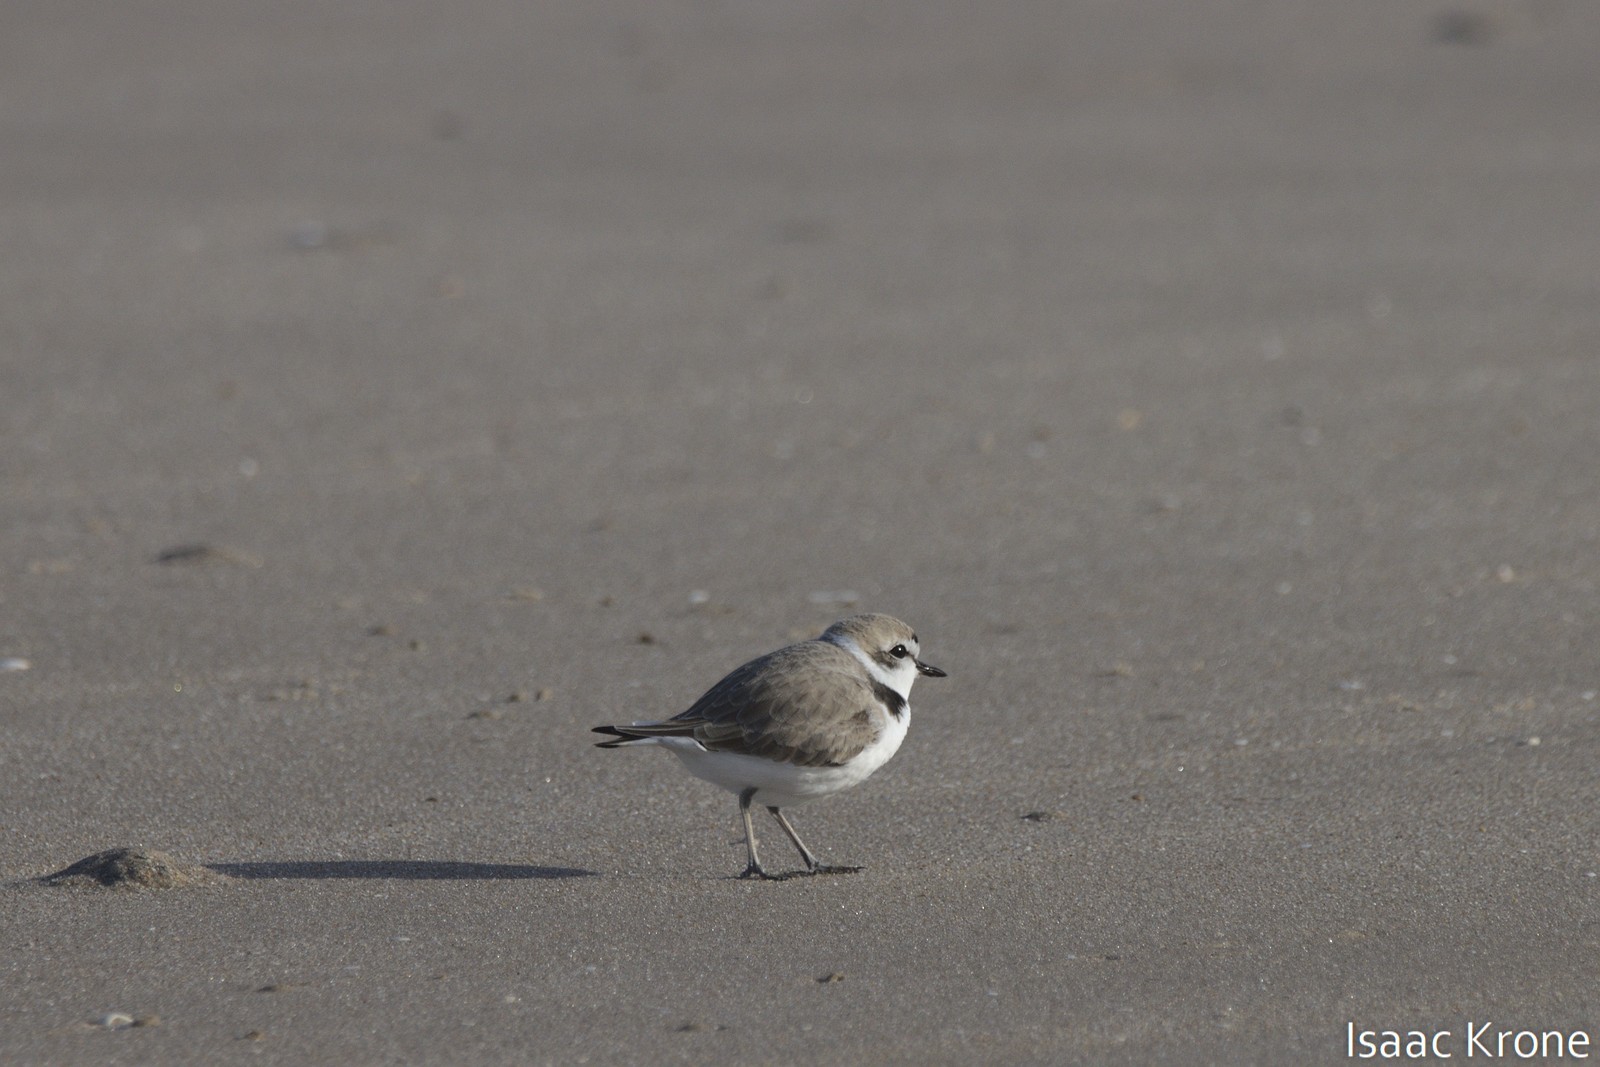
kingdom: Animalia
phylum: Chordata
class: Aves
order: Charadriiformes
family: Charadriidae
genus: Anarhynchus
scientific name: Anarhynchus
